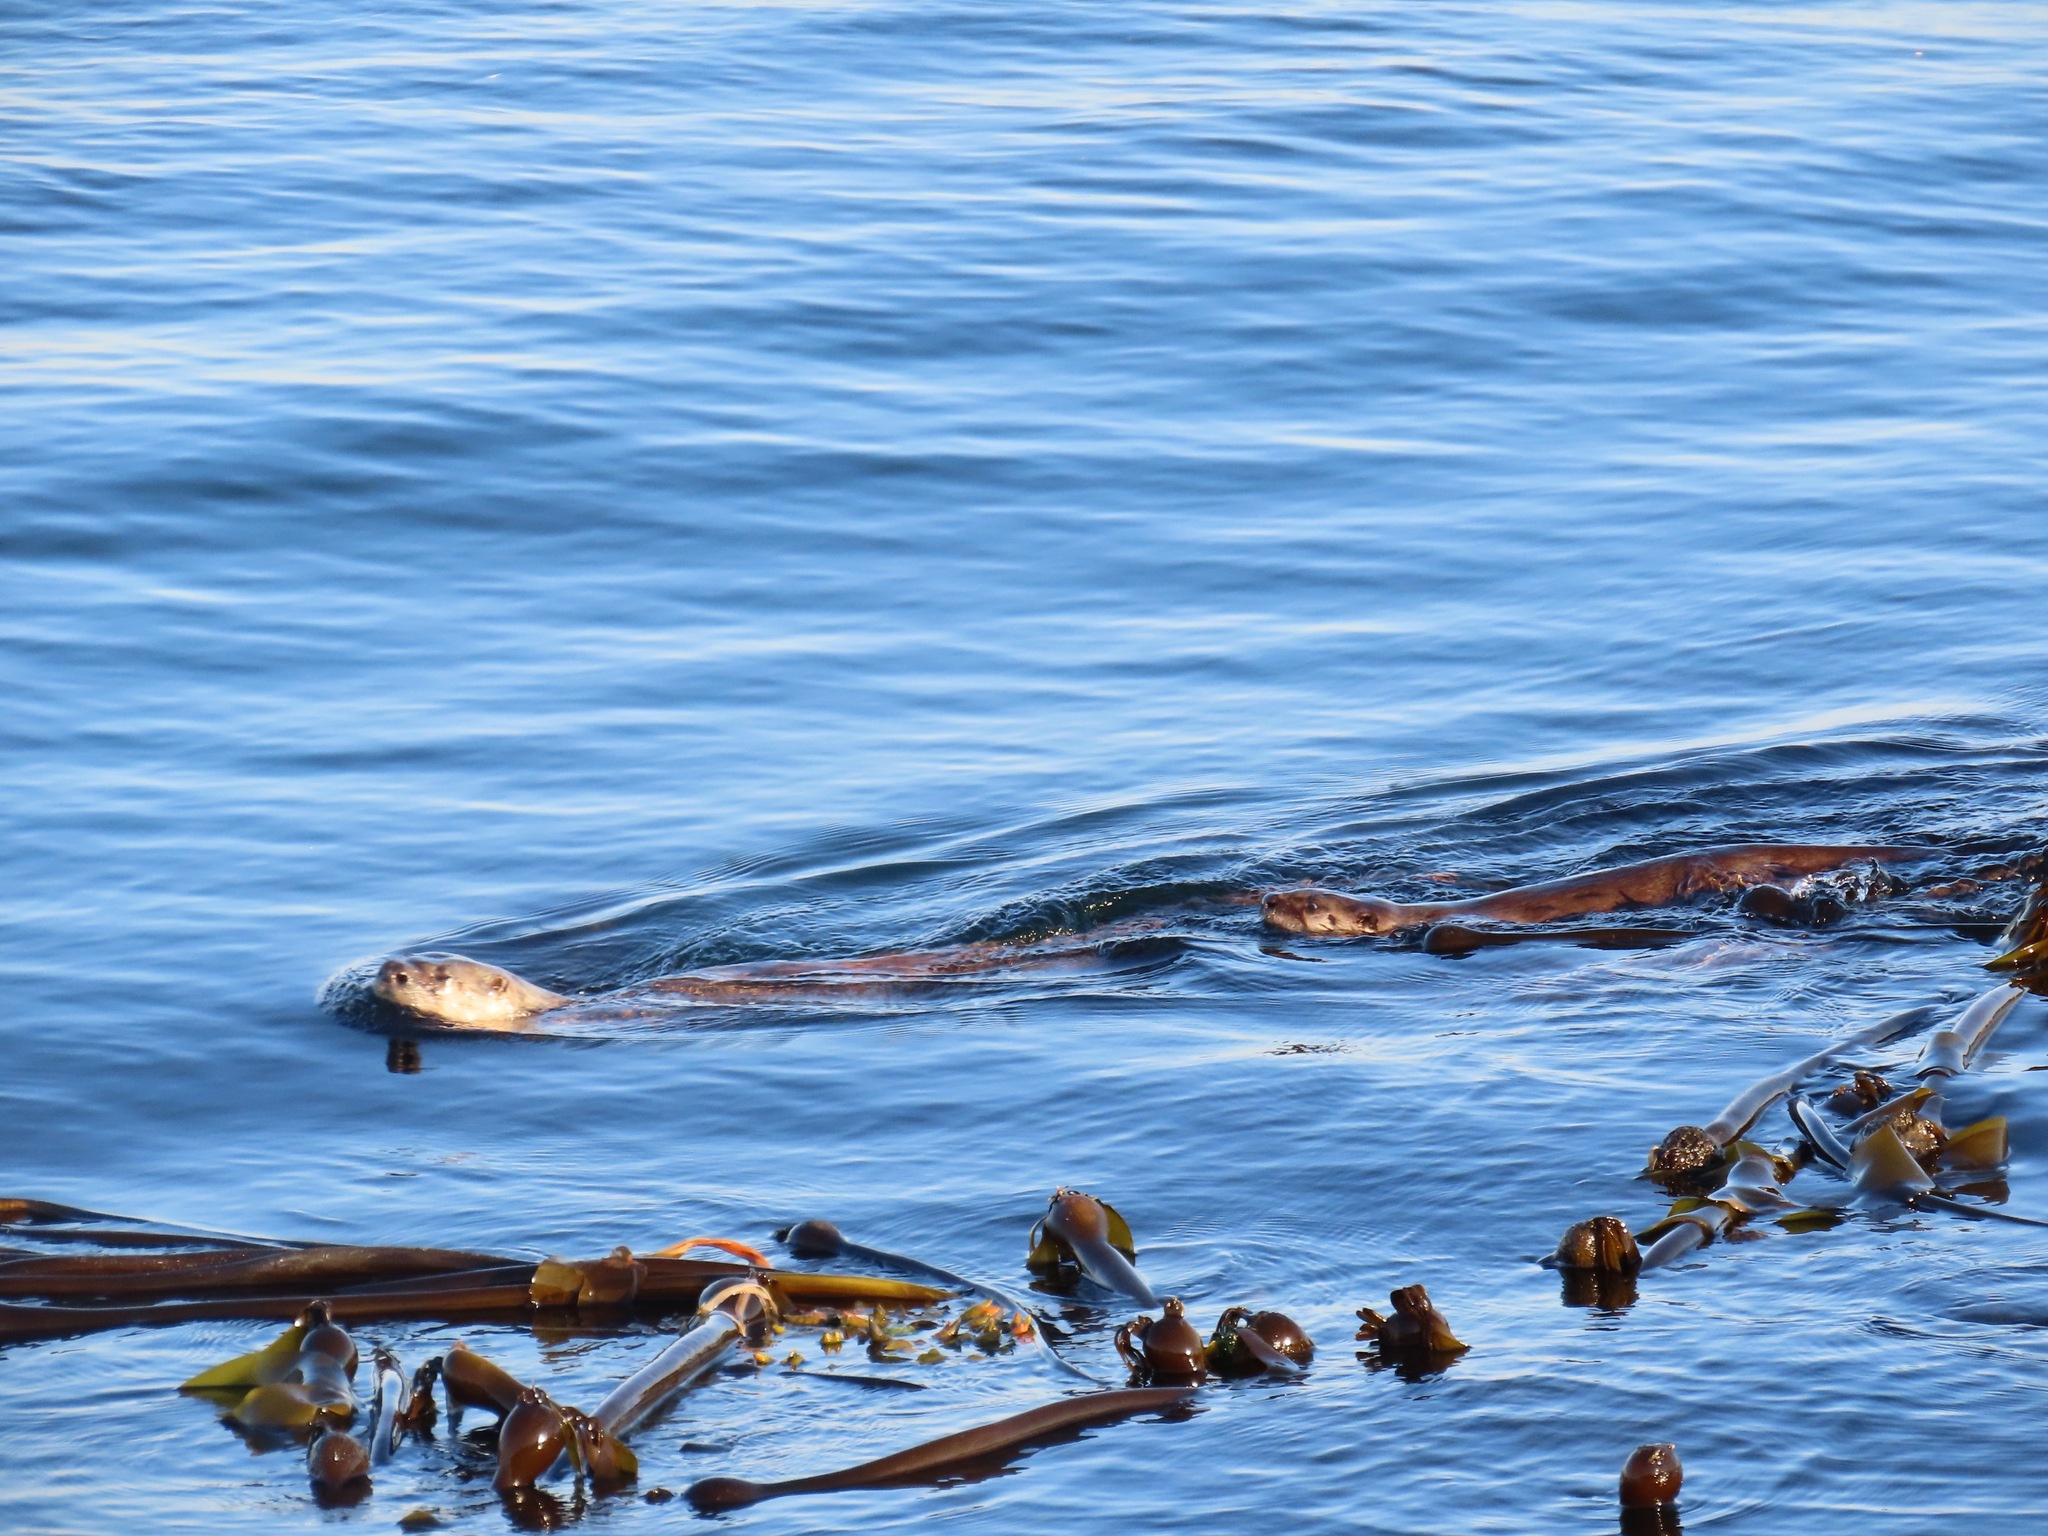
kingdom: Animalia
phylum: Chordata
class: Mammalia
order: Carnivora
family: Mustelidae
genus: Lontra
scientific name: Lontra canadensis
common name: North american river otter
